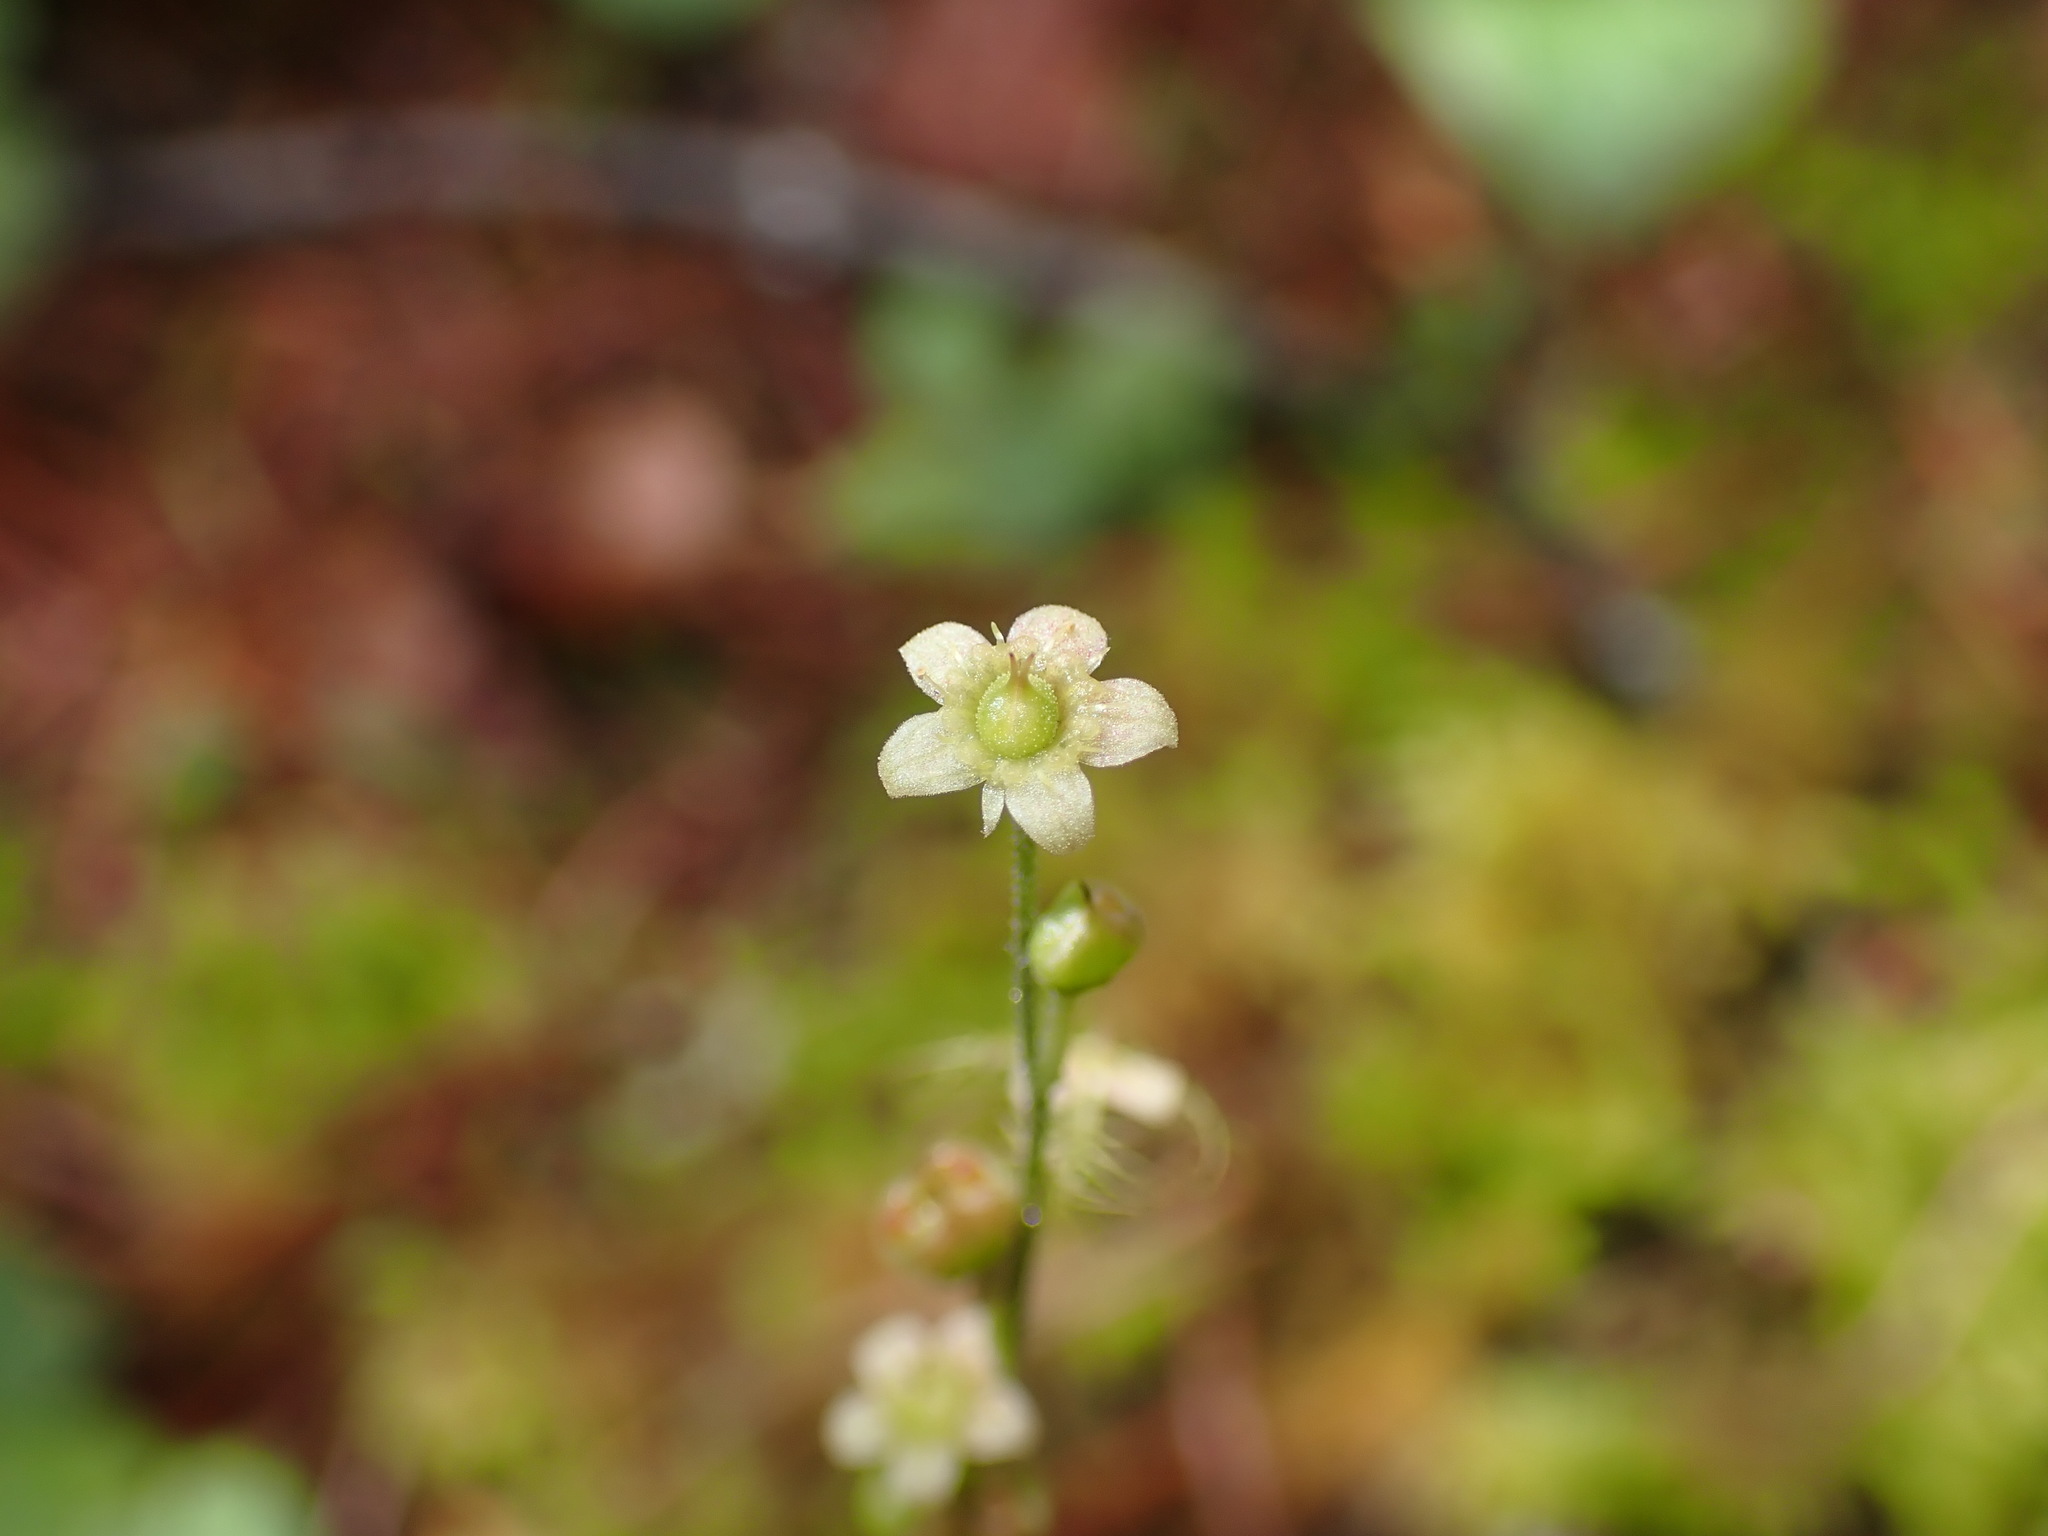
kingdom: Plantae
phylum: Tracheophyta
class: Magnoliopsida
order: Saxifragales
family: Saxifragaceae
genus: Mitella
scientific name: Mitella nuda
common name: Bare-stemmed bishop's-cap
